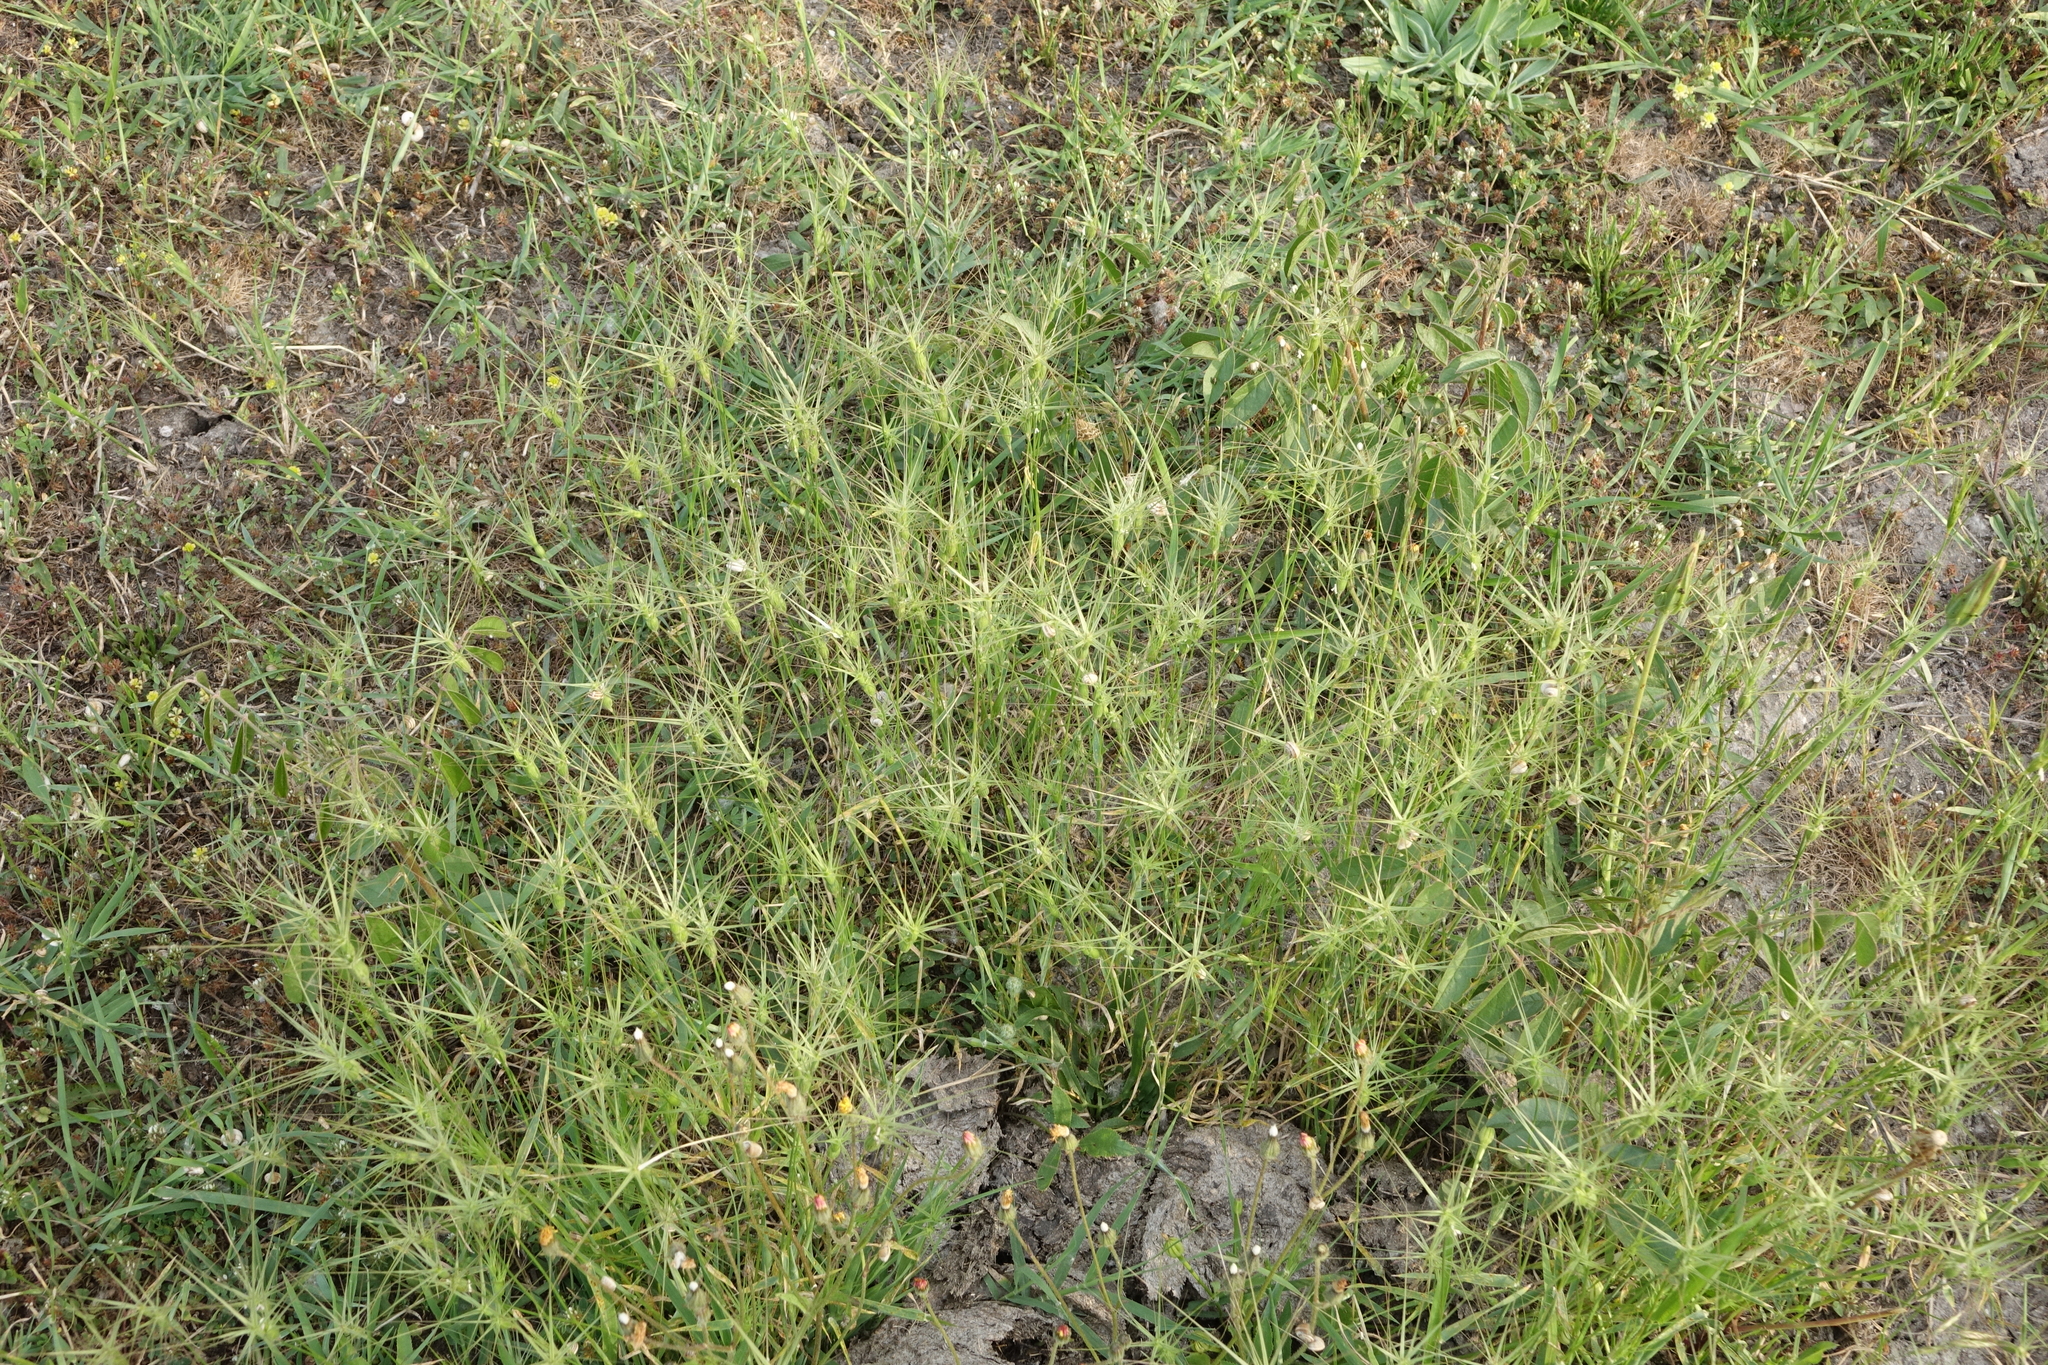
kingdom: Plantae
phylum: Tracheophyta
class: Liliopsida
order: Poales
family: Poaceae
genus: Aegilops
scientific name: Aegilops biuncialis
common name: Mediterranean aegilops
